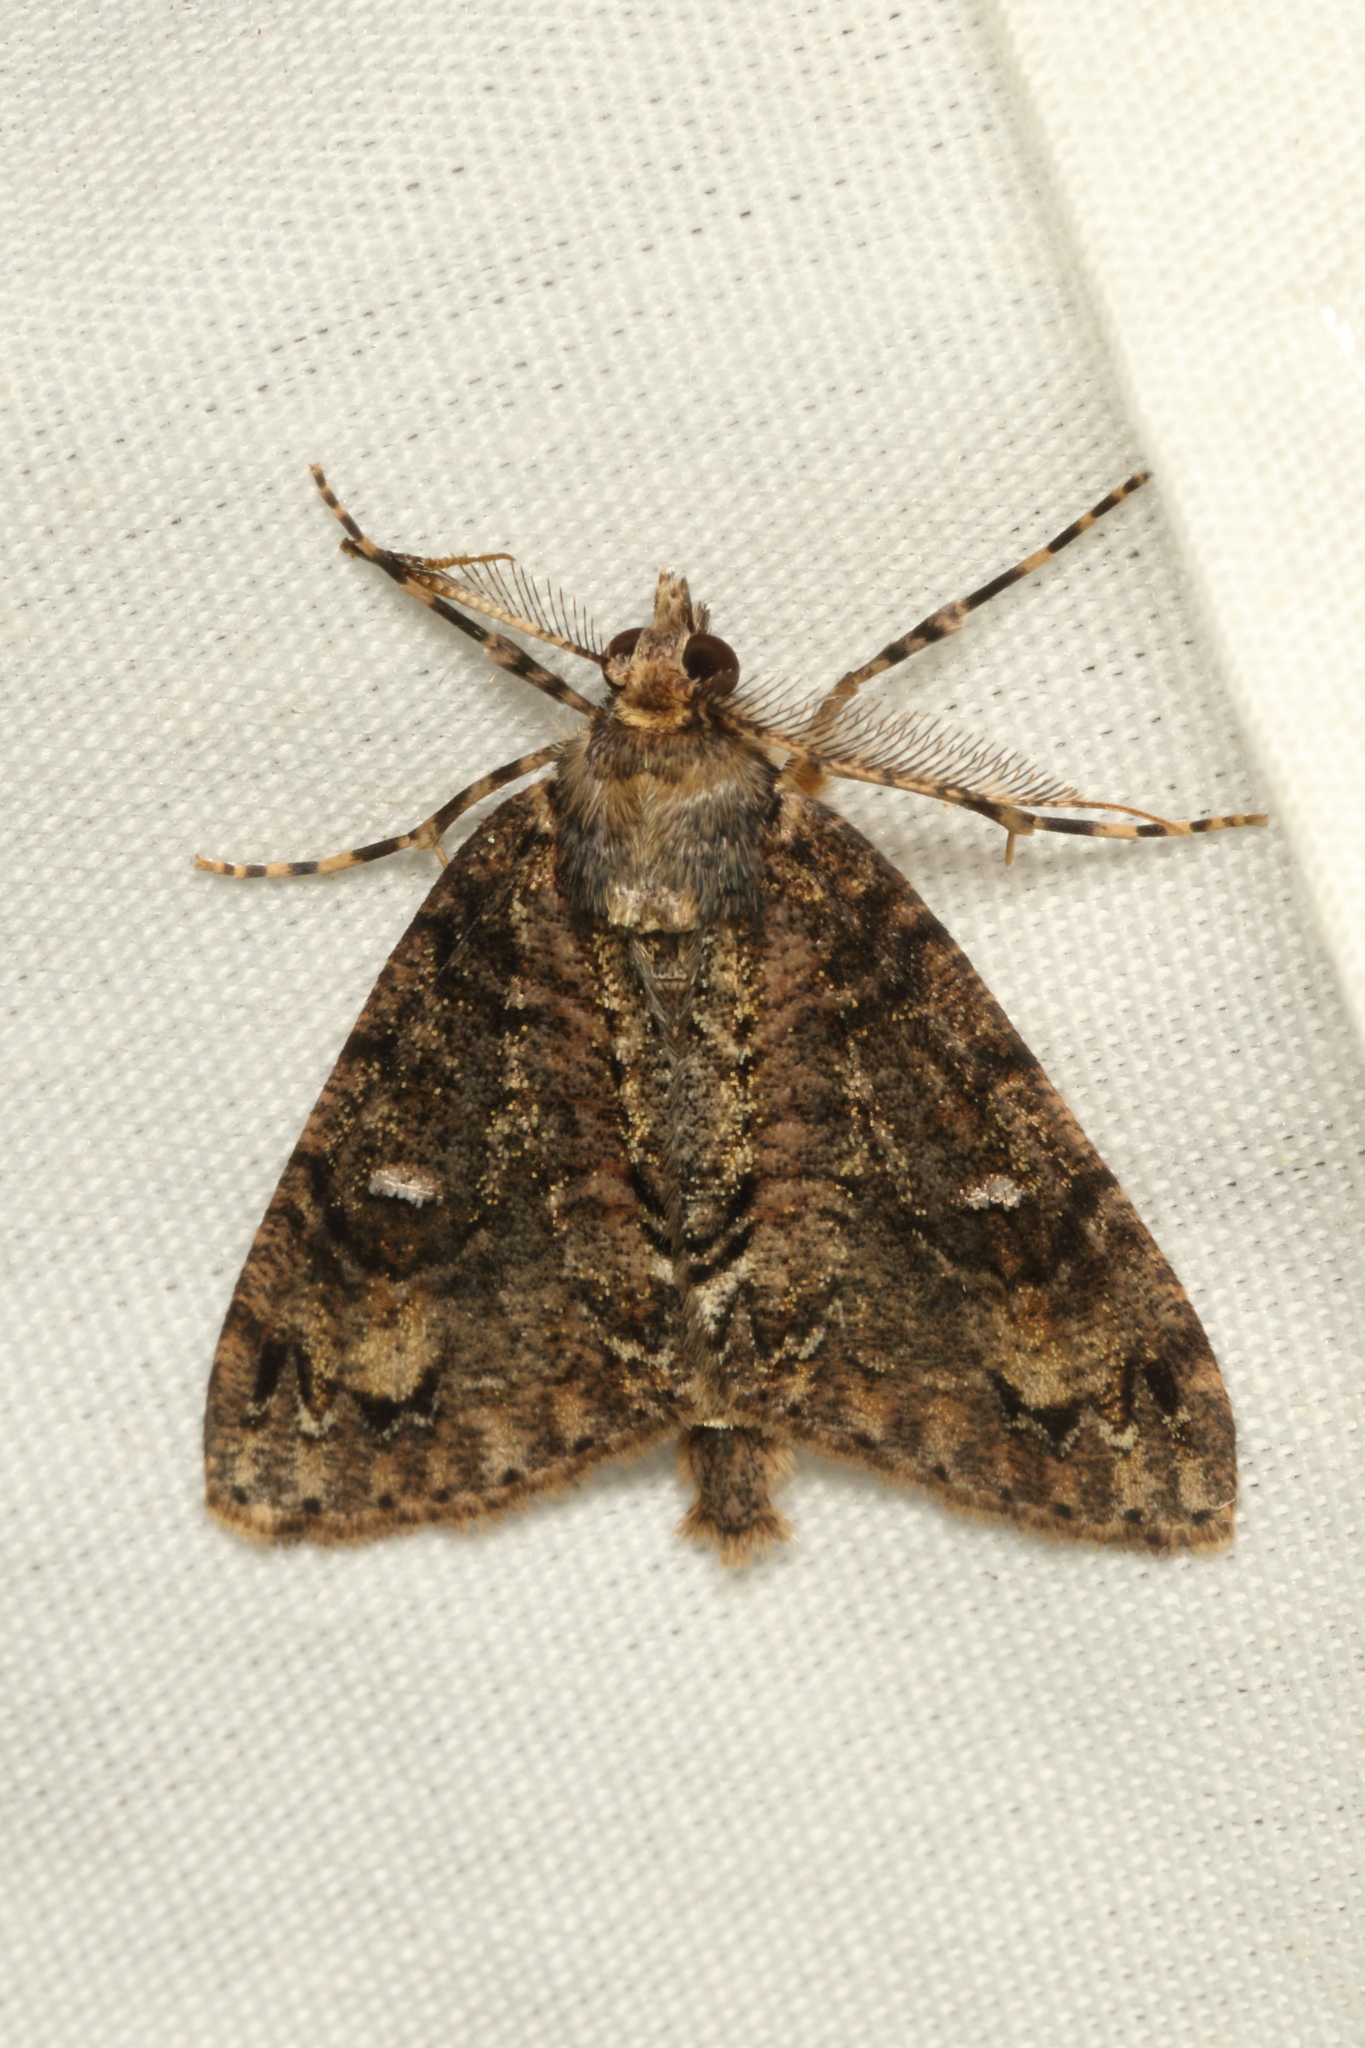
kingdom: Animalia
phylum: Arthropoda
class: Insecta
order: Lepidoptera
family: Geometridae
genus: Pseudocoremia
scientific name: Pseudocoremia suavis
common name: Common forest looper
